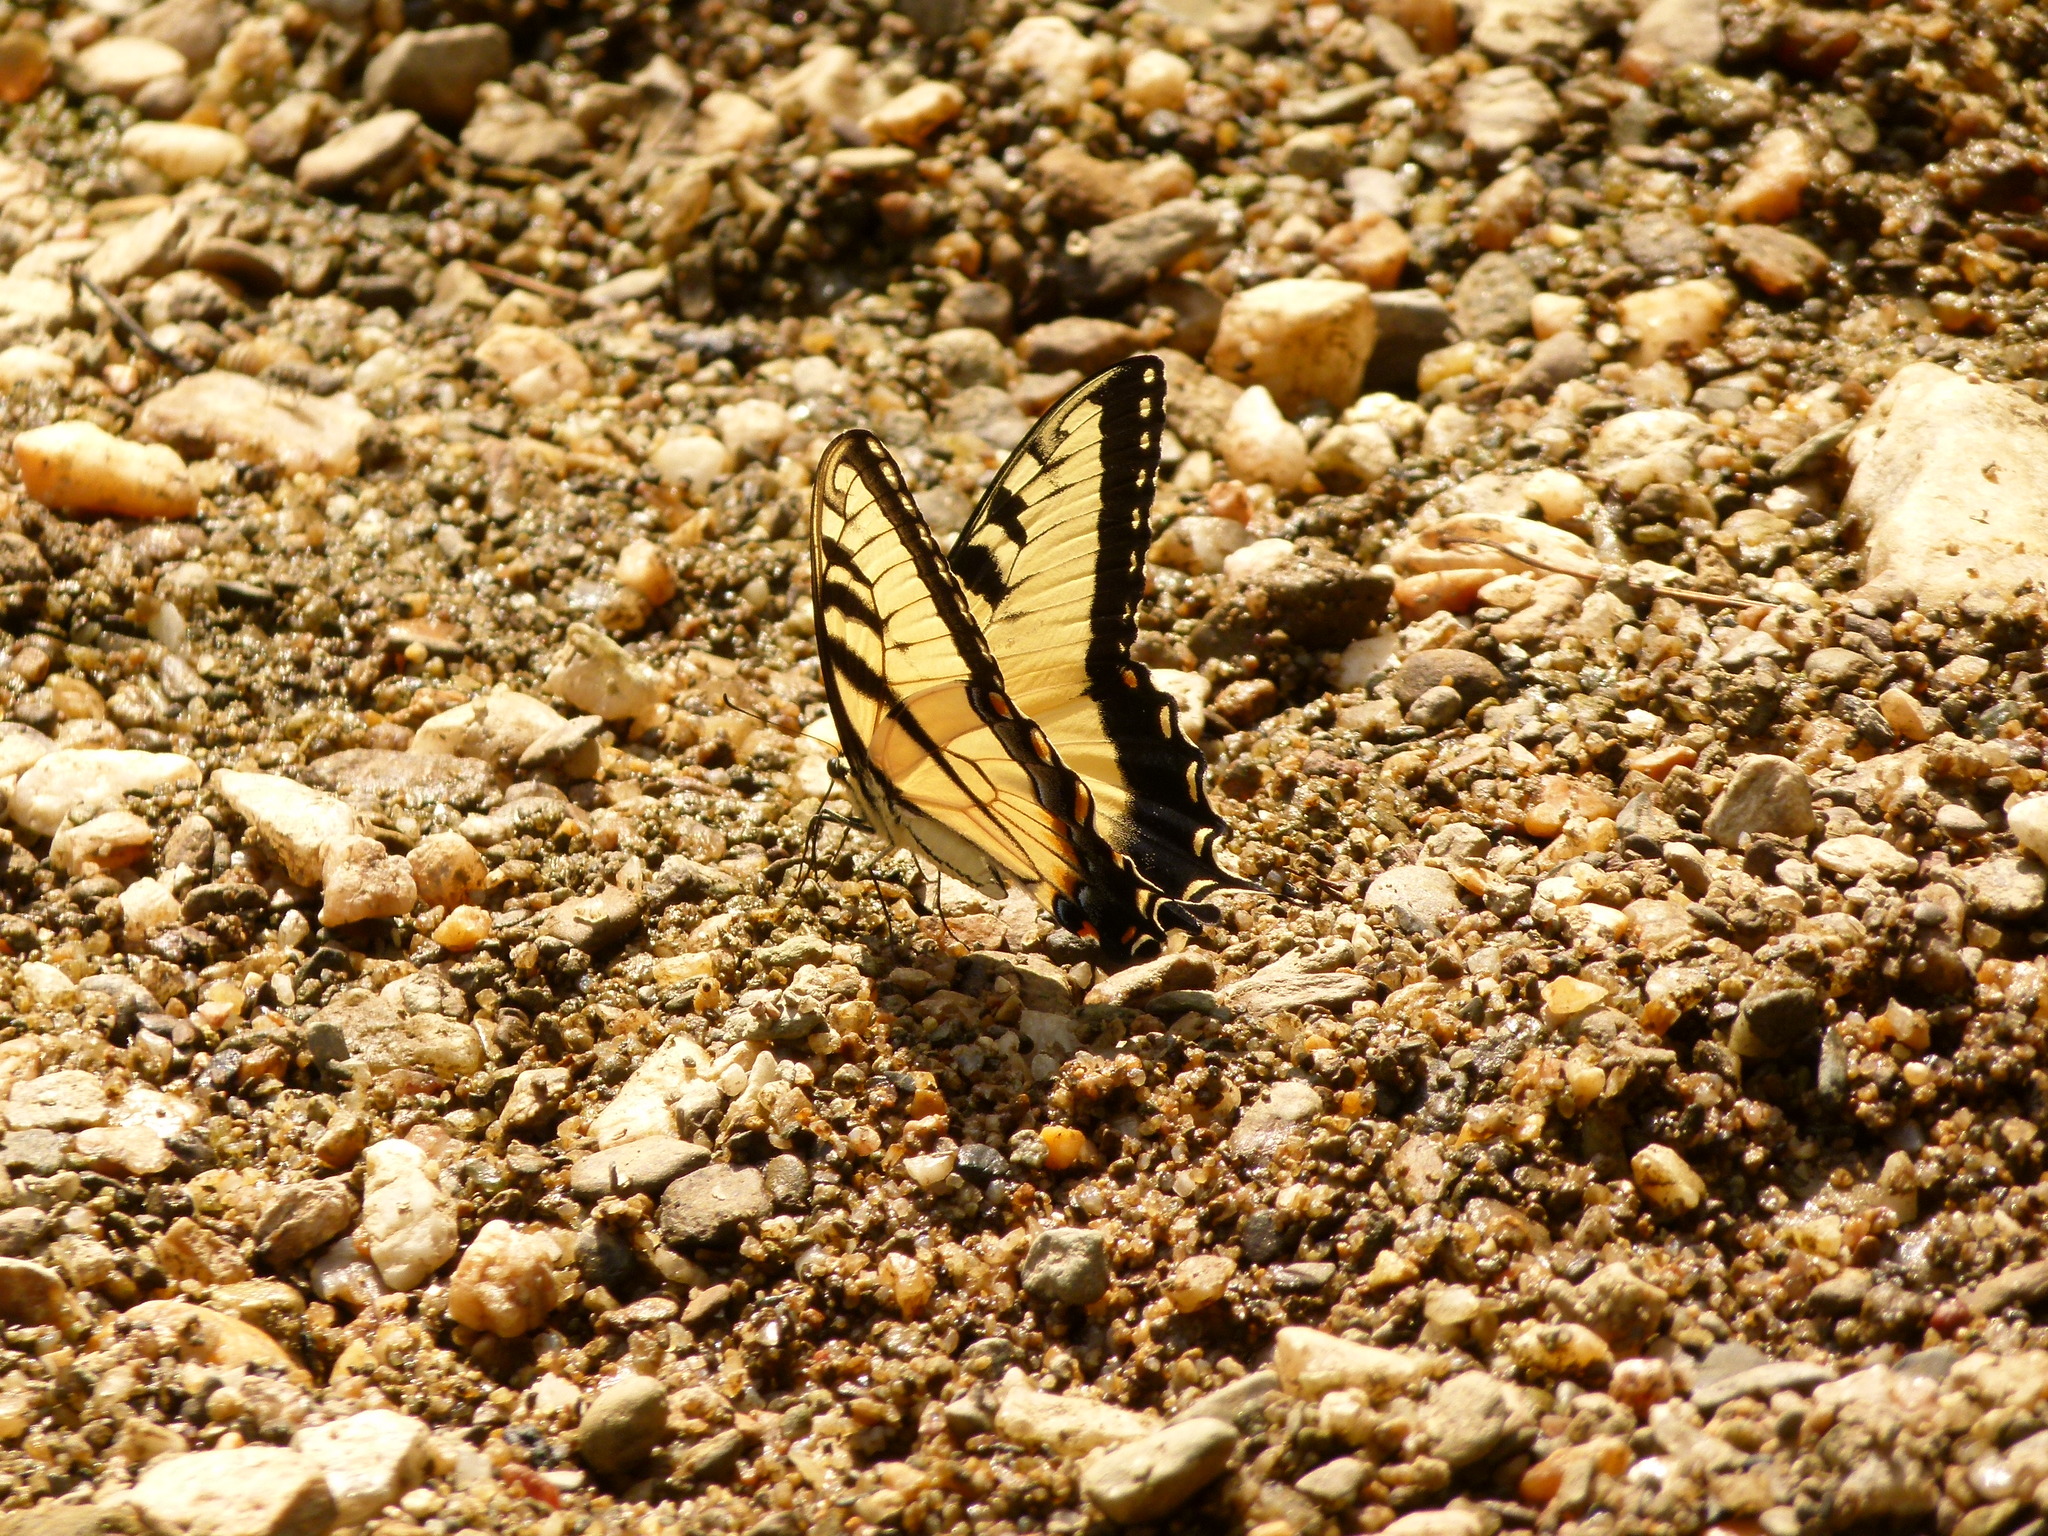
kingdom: Animalia
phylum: Arthropoda
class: Insecta
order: Lepidoptera
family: Papilionidae
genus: Papilio
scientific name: Papilio glaucus
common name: Tiger swallowtail
